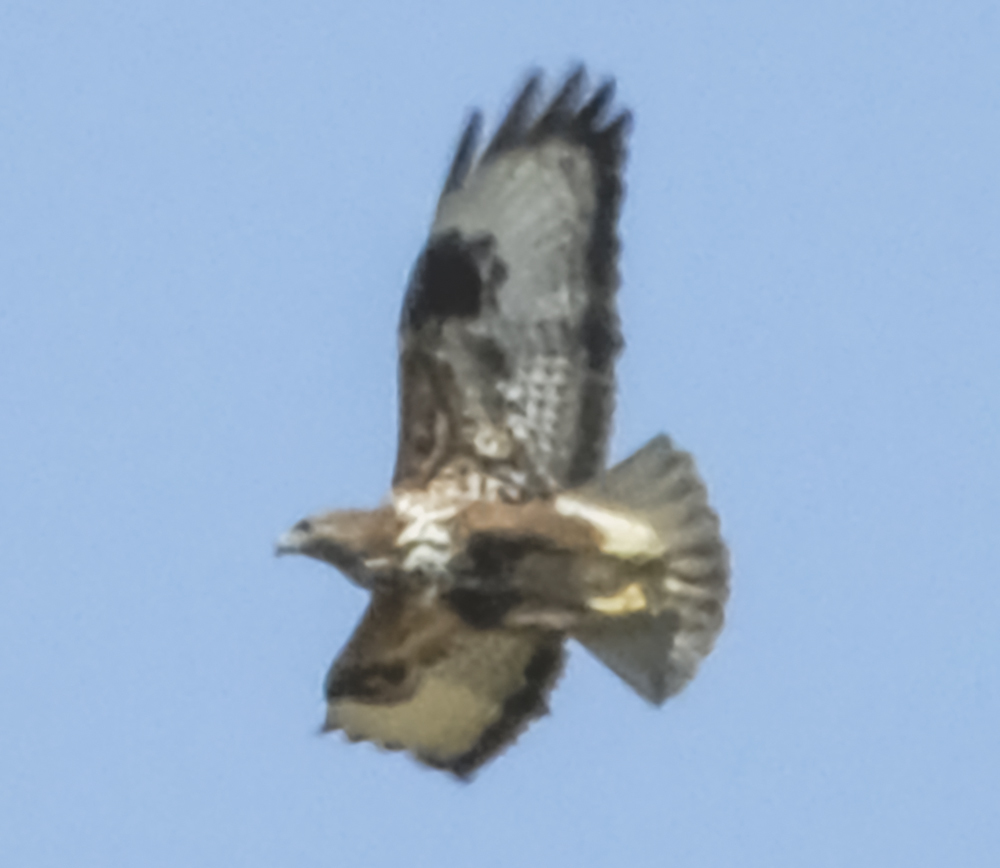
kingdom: Animalia
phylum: Chordata
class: Aves
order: Accipitriformes
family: Accipitridae
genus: Buteo
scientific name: Buteo buteo
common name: Common buzzard
